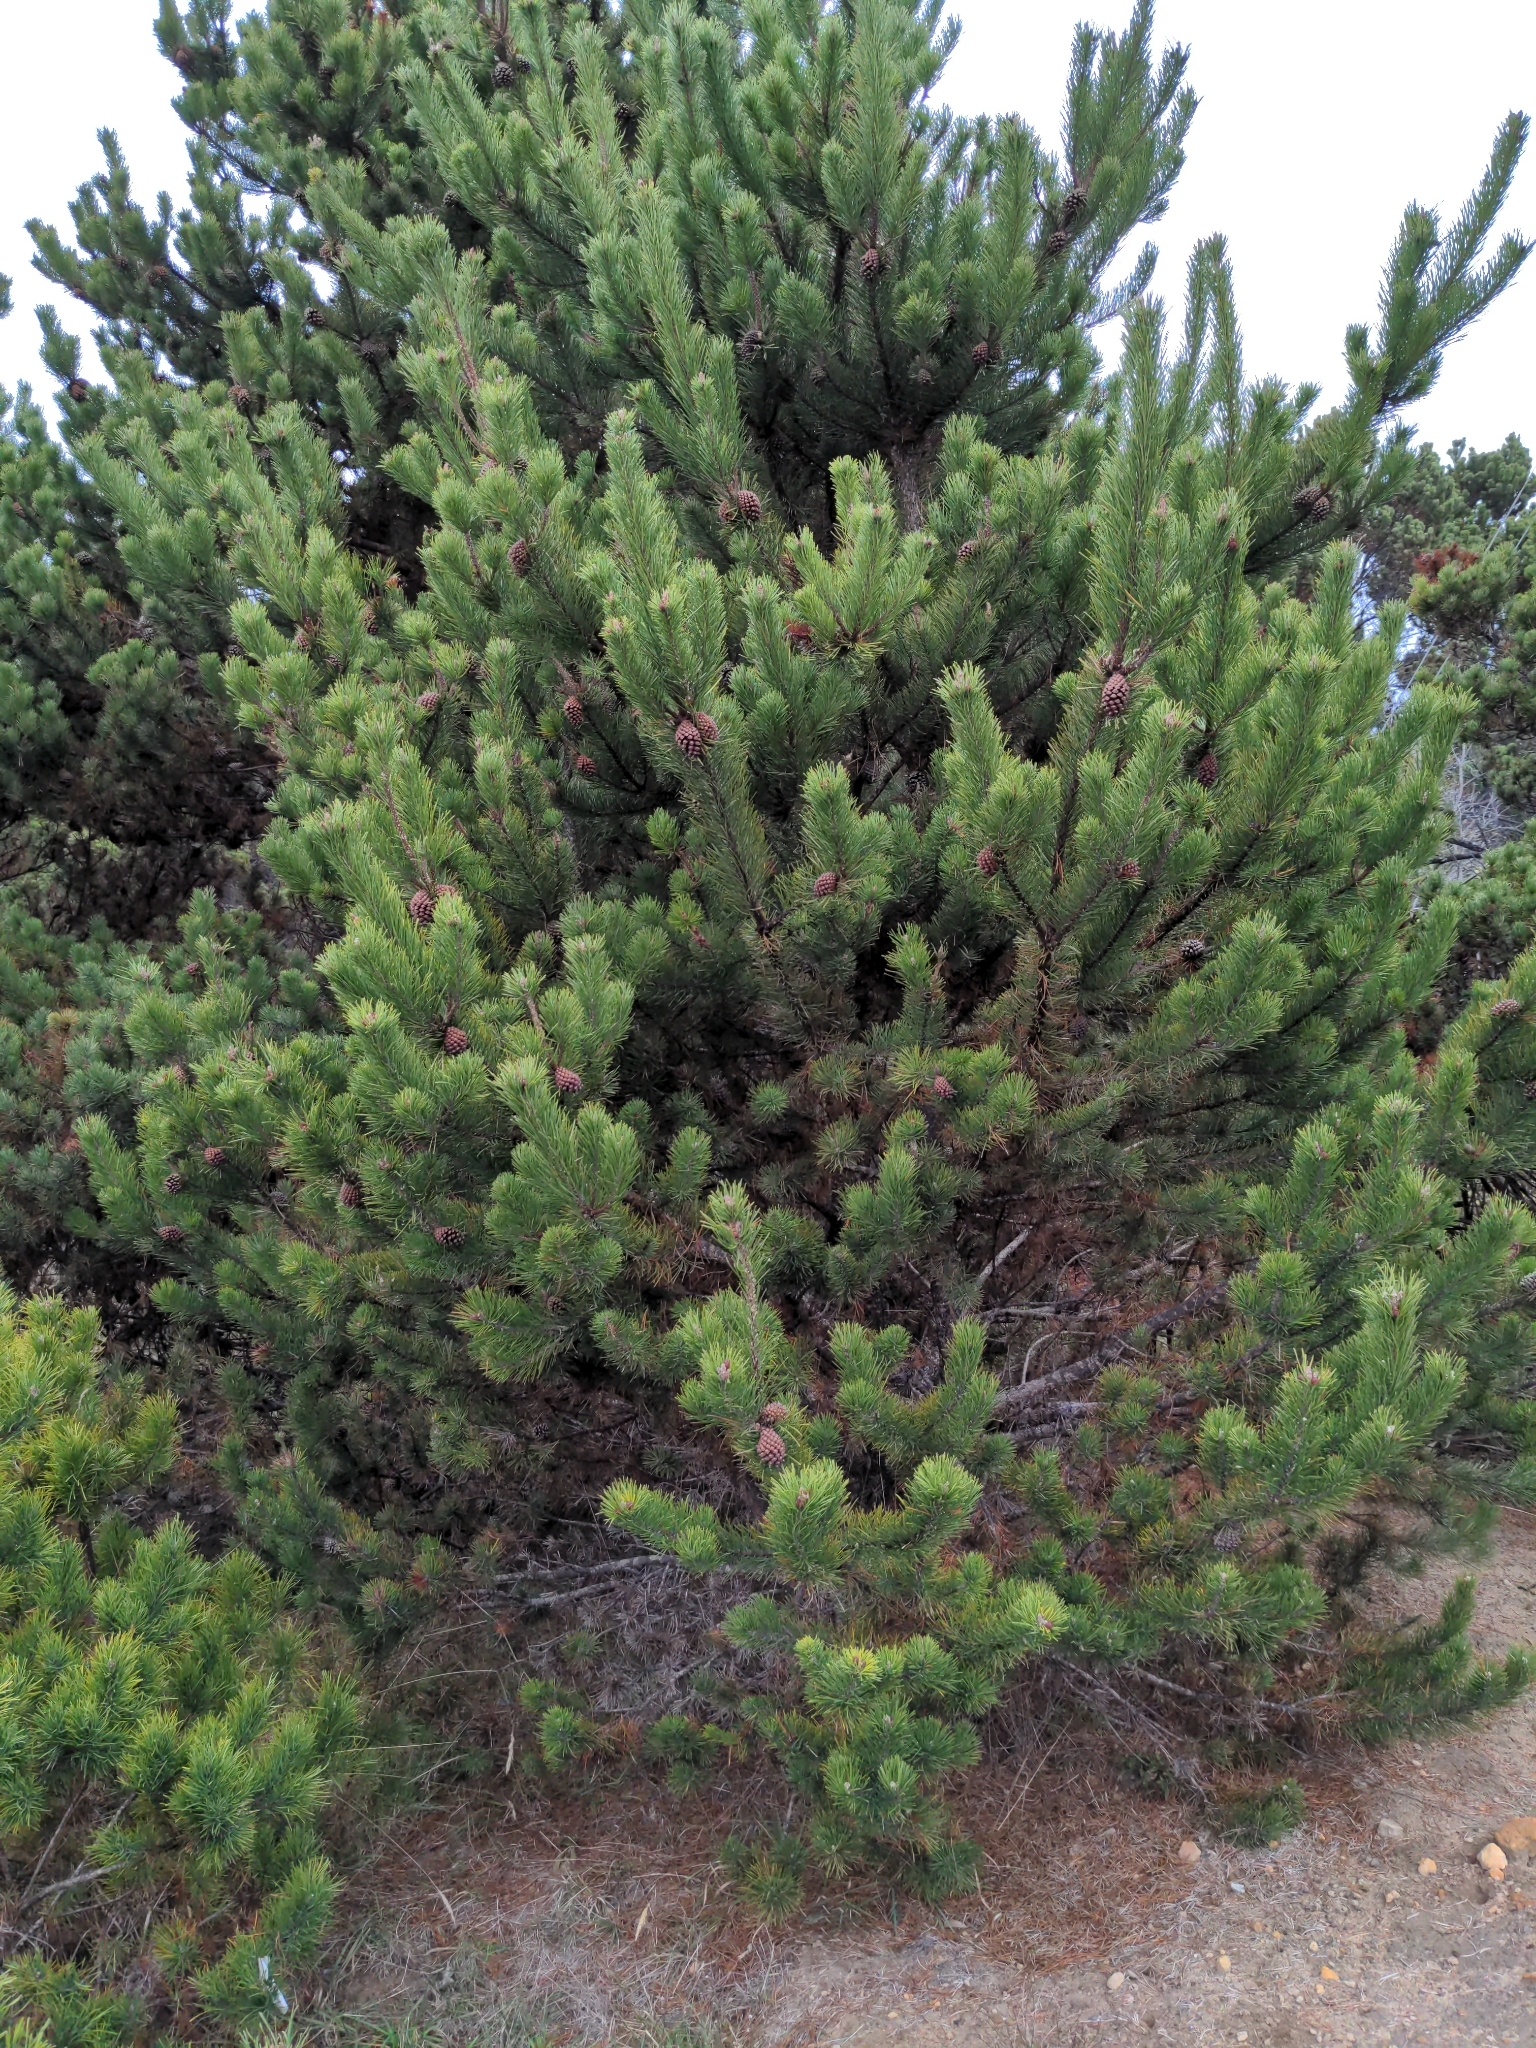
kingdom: Plantae
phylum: Tracheophyta
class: Pinopsida
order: Pinales
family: Pinaceae
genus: Pinus
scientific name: Pinus contorta
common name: Lodgepole pine
